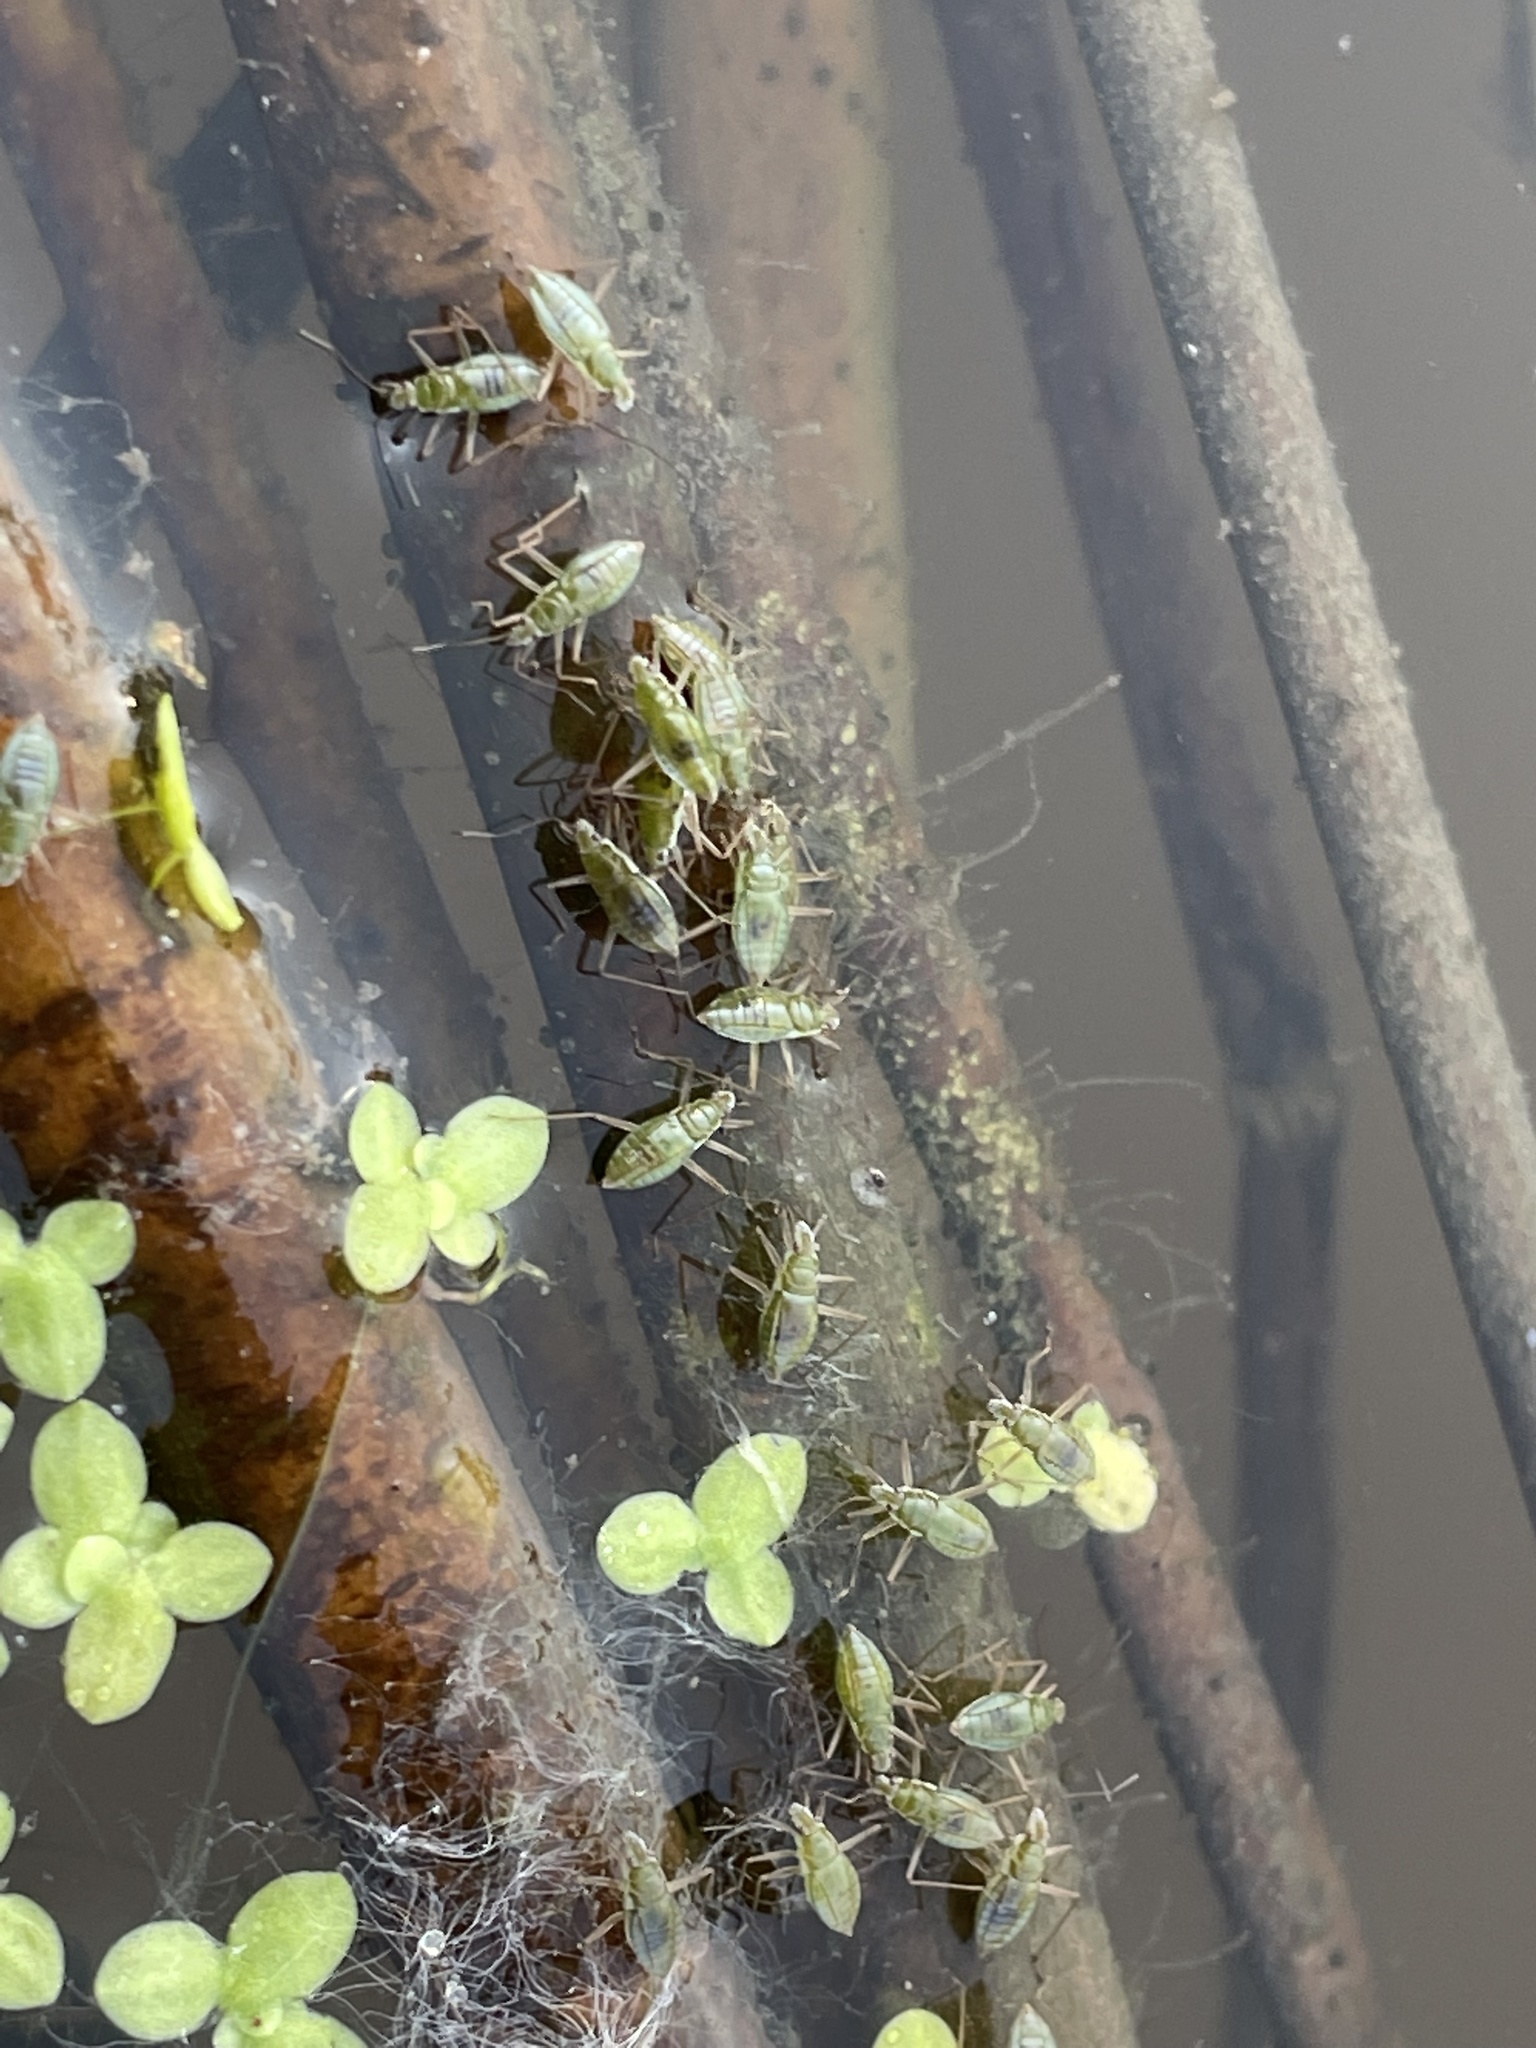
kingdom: Animalia
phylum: Arthropoda
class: Insecta
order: Hemiptera
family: Mesoveliidae
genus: Mesovelia
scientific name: Mesovelia
